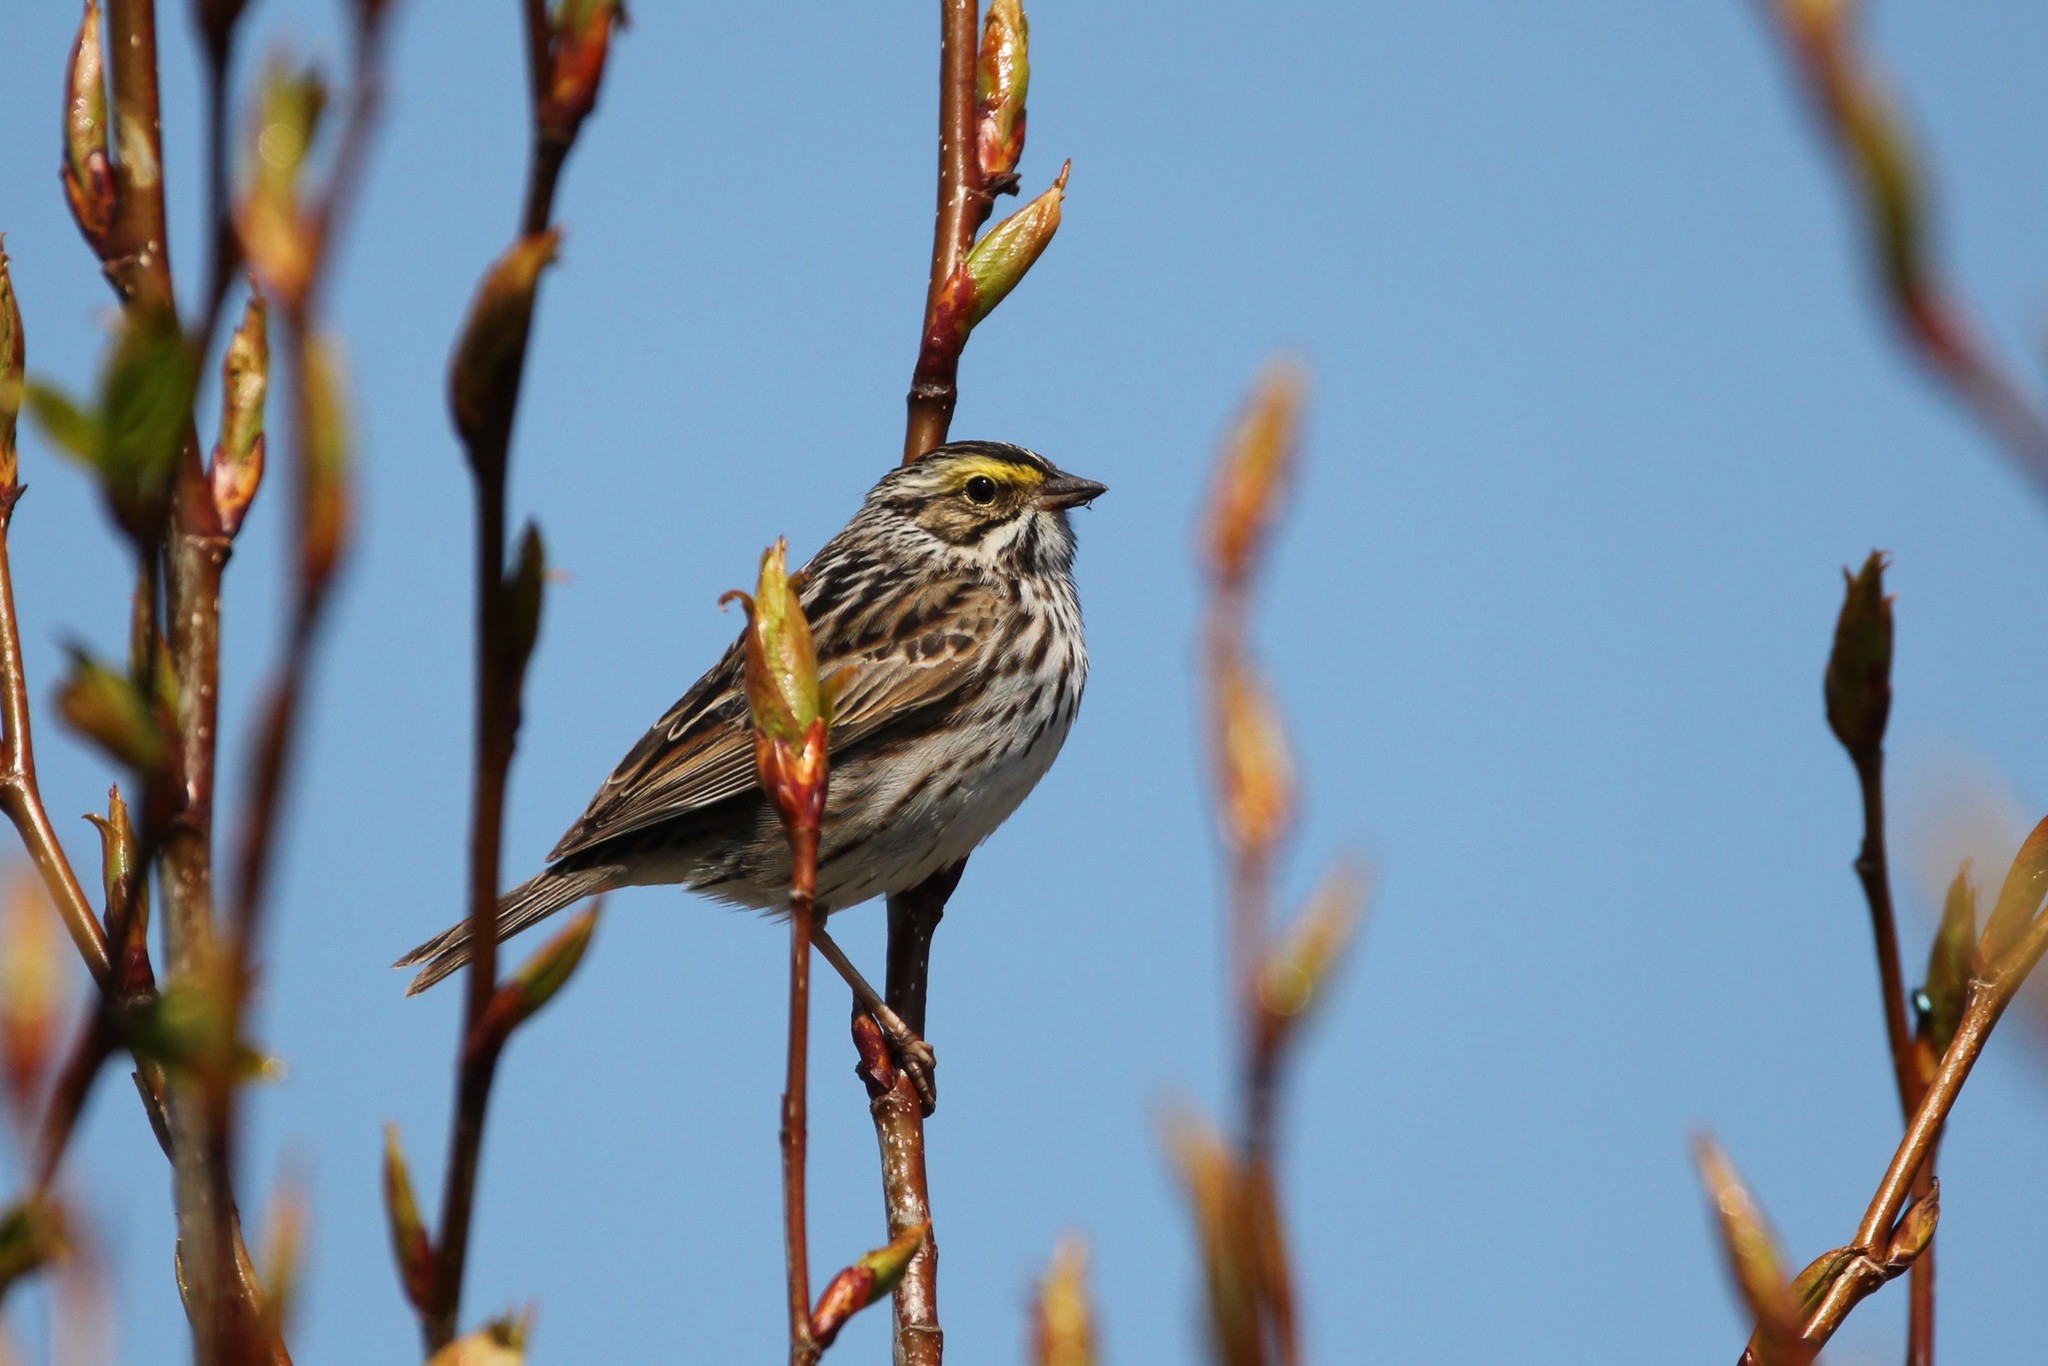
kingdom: Animalia
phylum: Chordata
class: Aves
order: Passeriformes
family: Passerellidae
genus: Passerculus
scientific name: Passerculus sandwichensis
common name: Savannah sparrow
